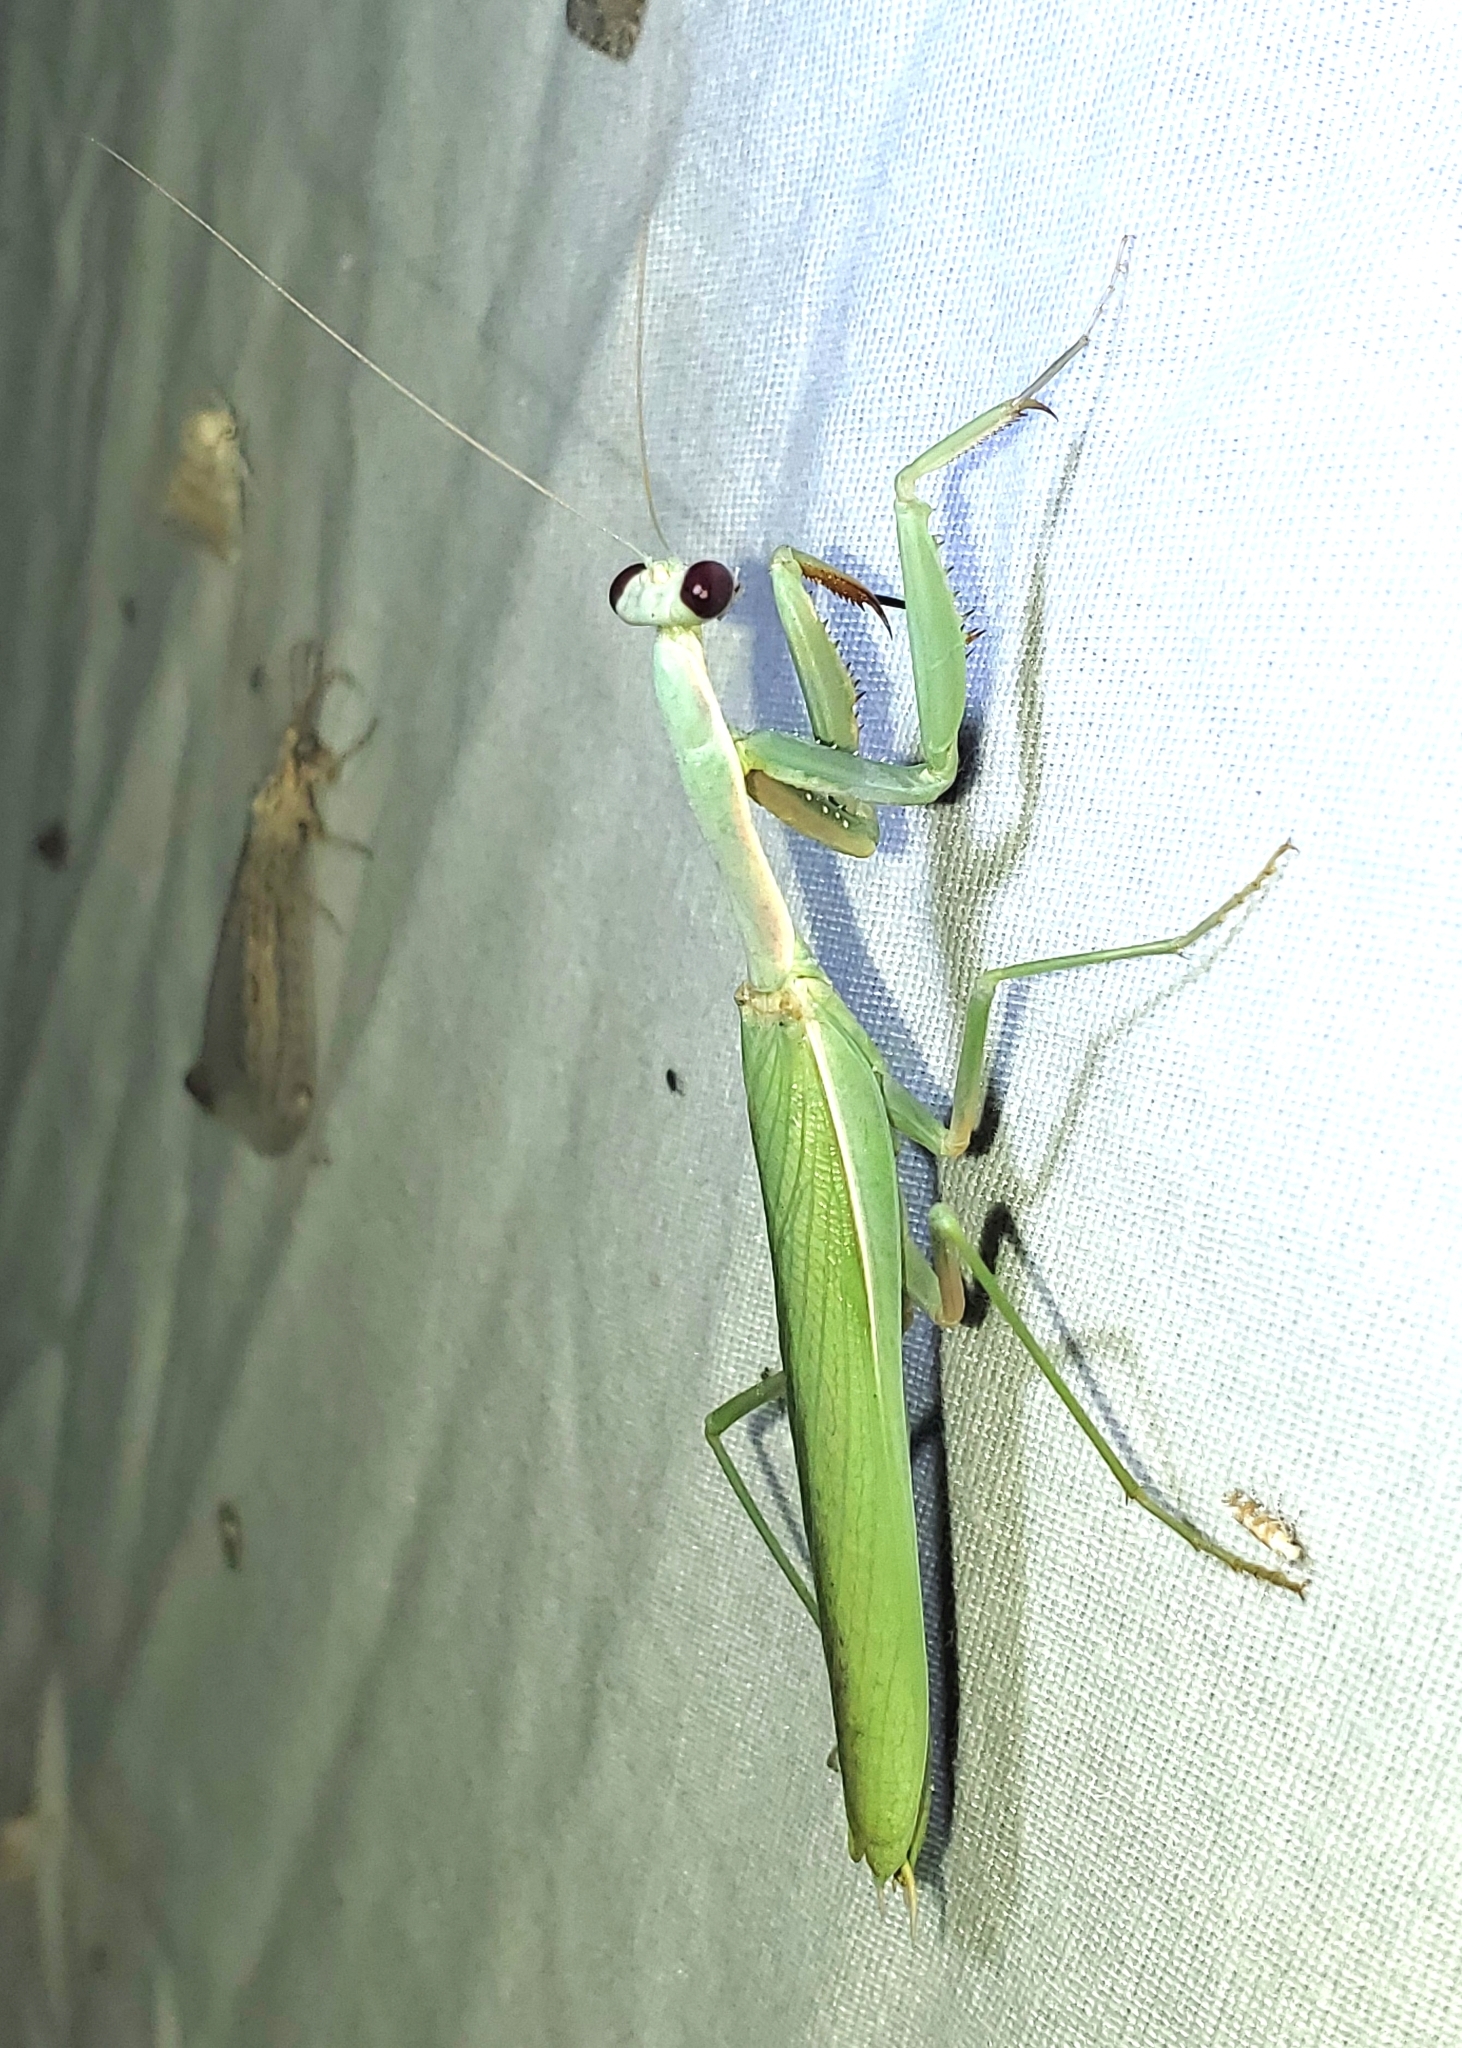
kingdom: Animalia
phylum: Arthropoda
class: Insecta
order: Mantodea
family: Eremiaphilidae
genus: Iris
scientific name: Iris oratoria
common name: Mediterranean mantis
